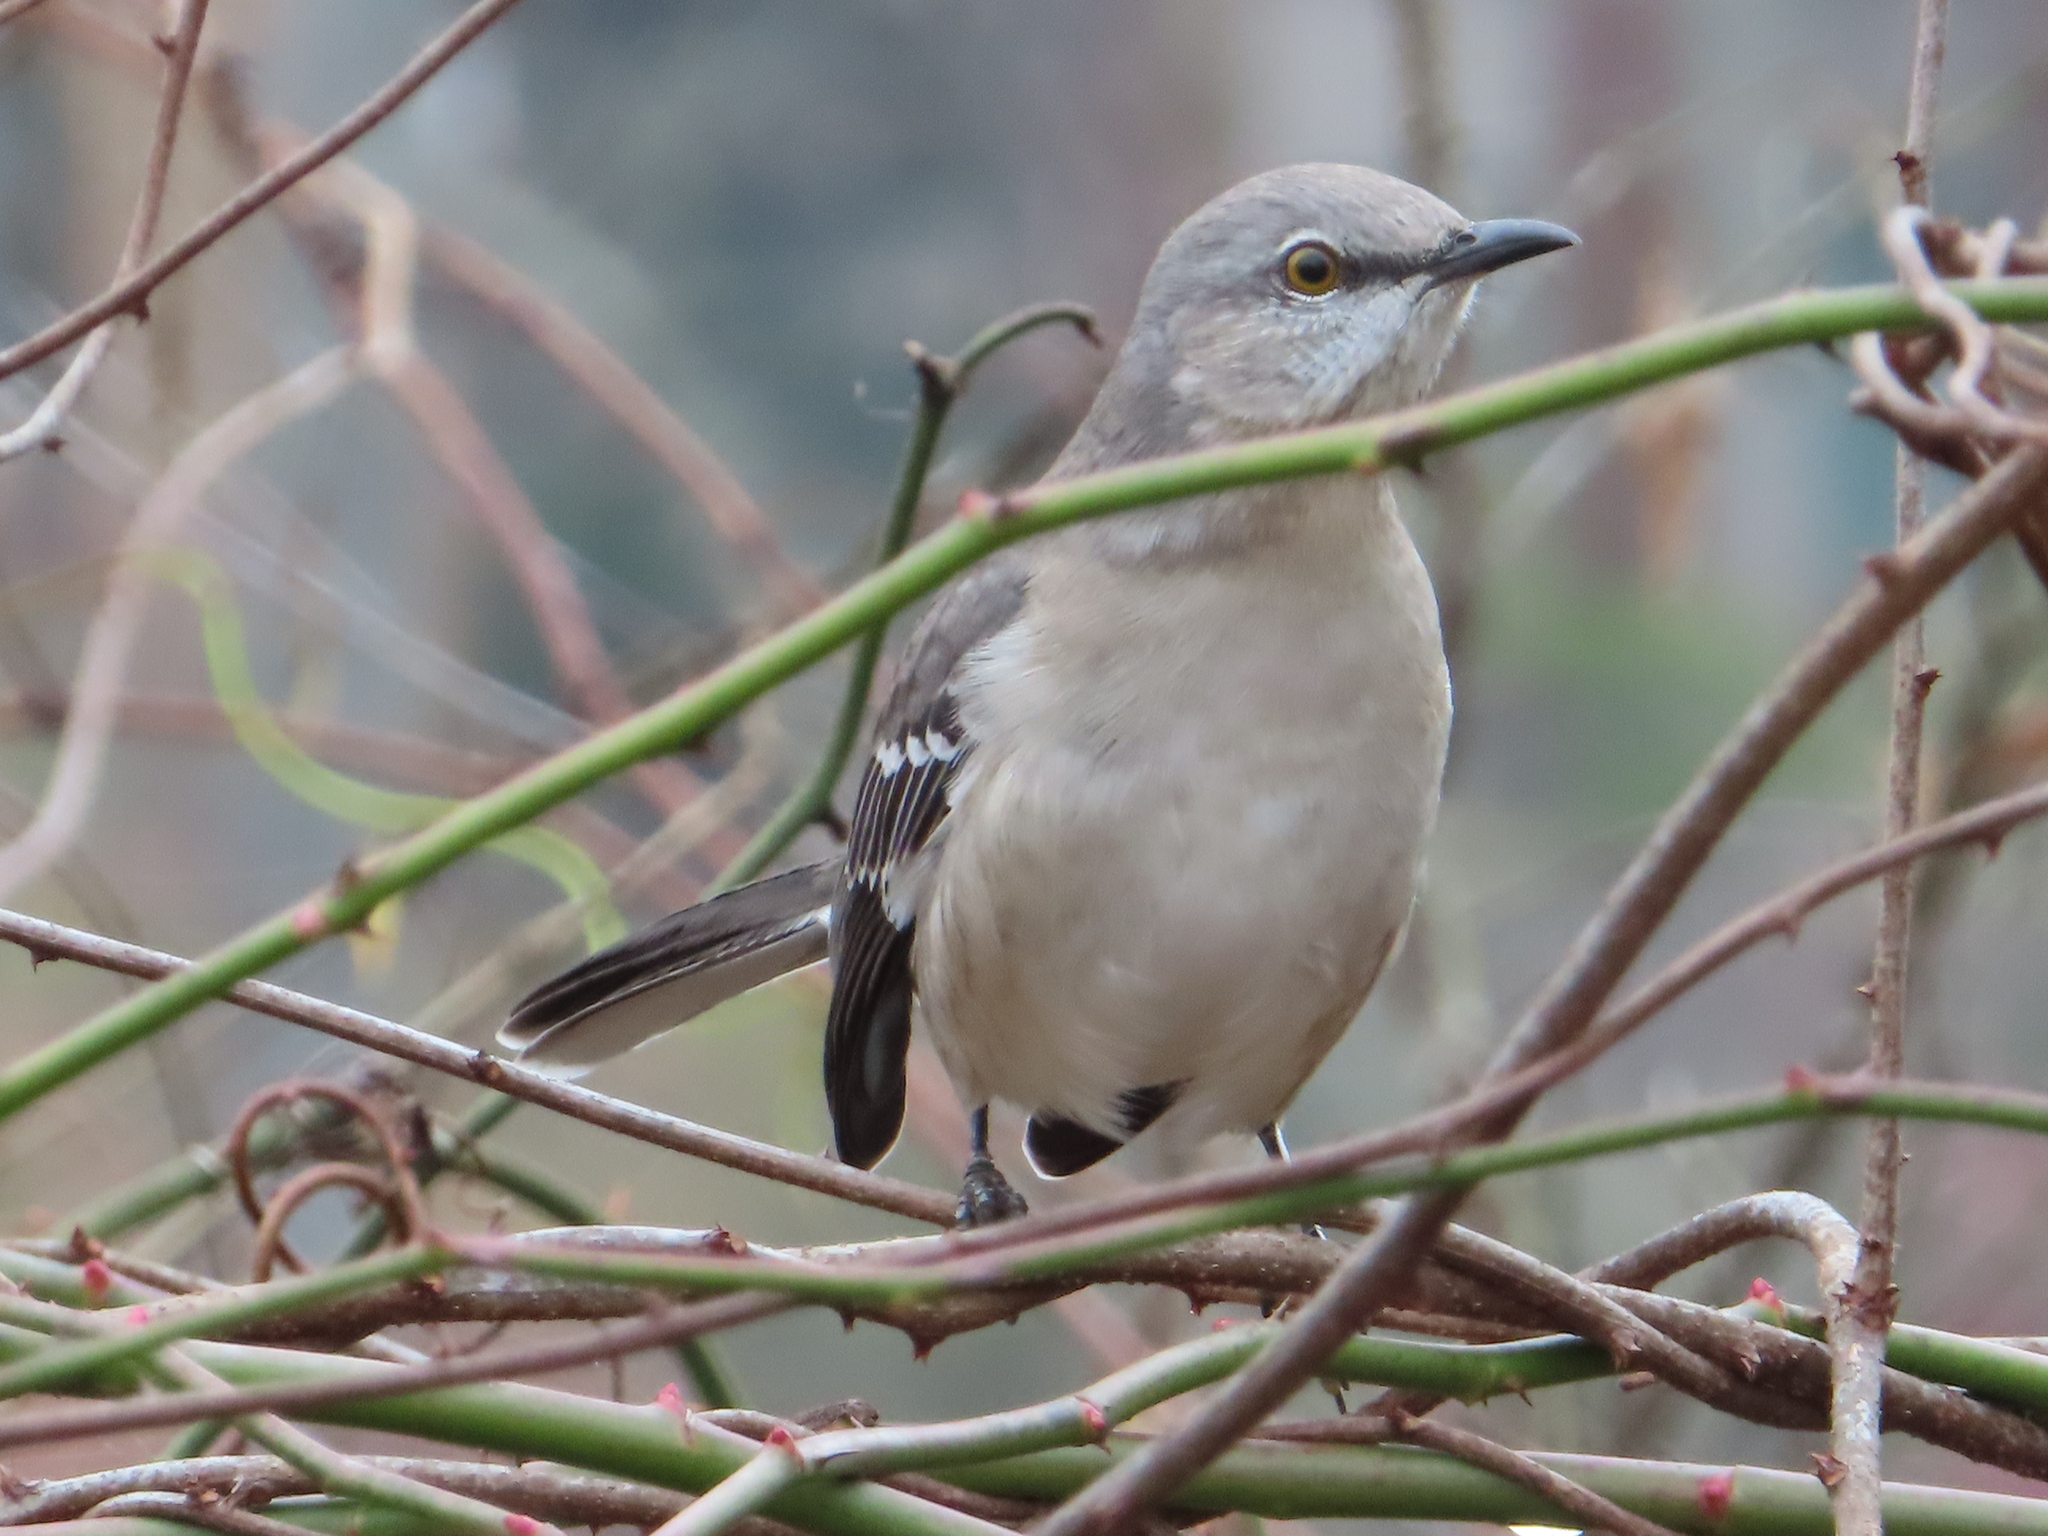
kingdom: Animalia
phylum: Chordata
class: Aves
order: Passeriformes
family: Mimidae
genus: Mimus
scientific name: Mimus polyglottos
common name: Northern mockingbird
